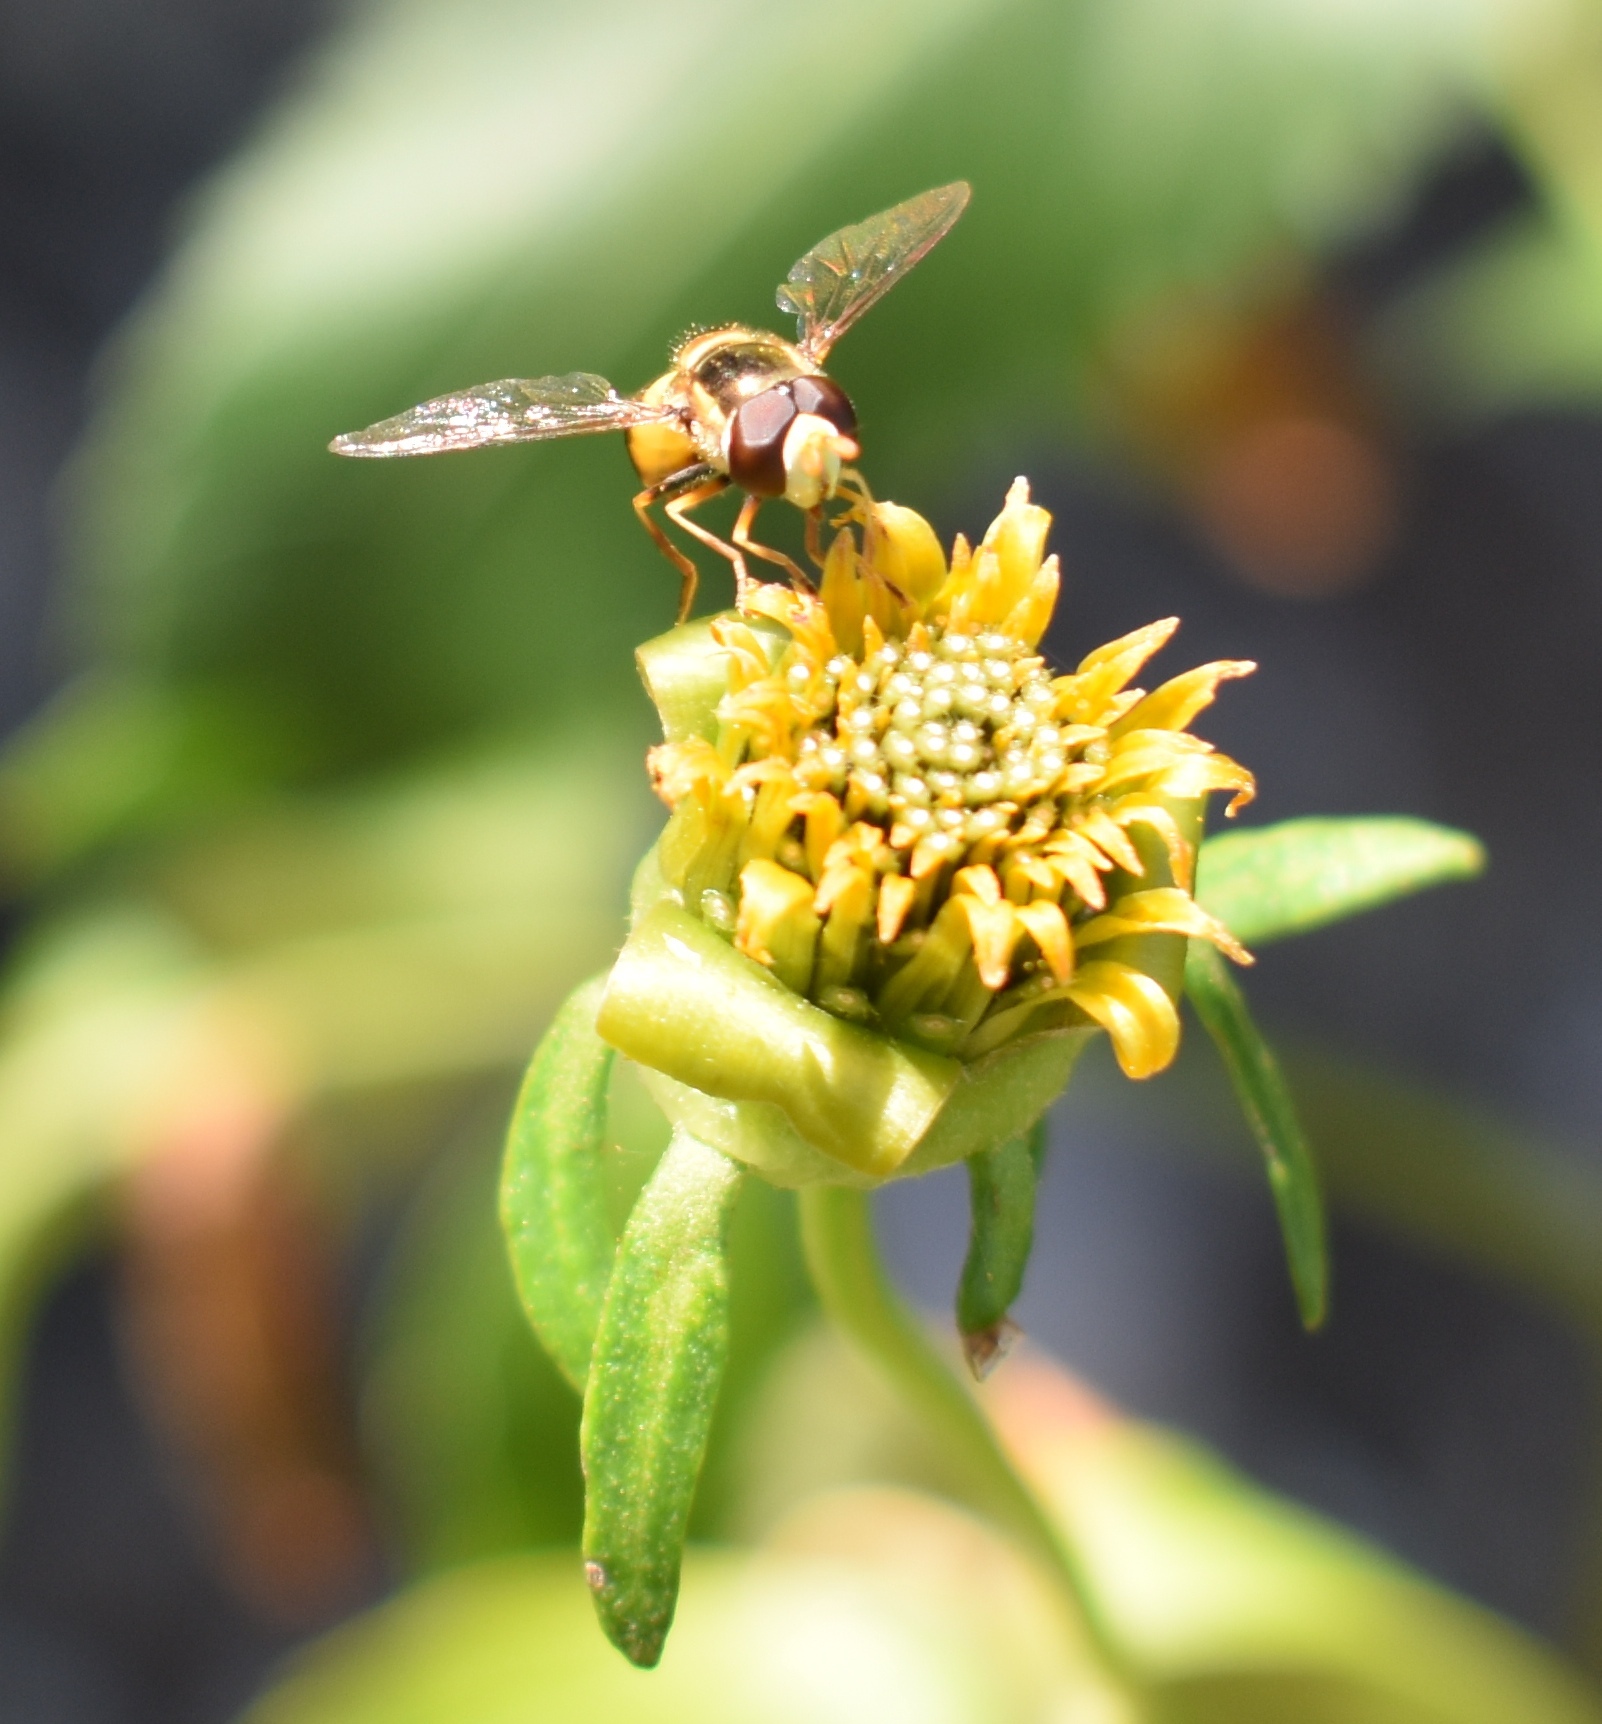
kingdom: Animalia
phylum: Arthropoda
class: Insecta
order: Diptera
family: Syrphidae
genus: Simosyrphus
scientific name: Simosyrphus grandicornis
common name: Hoverfly
